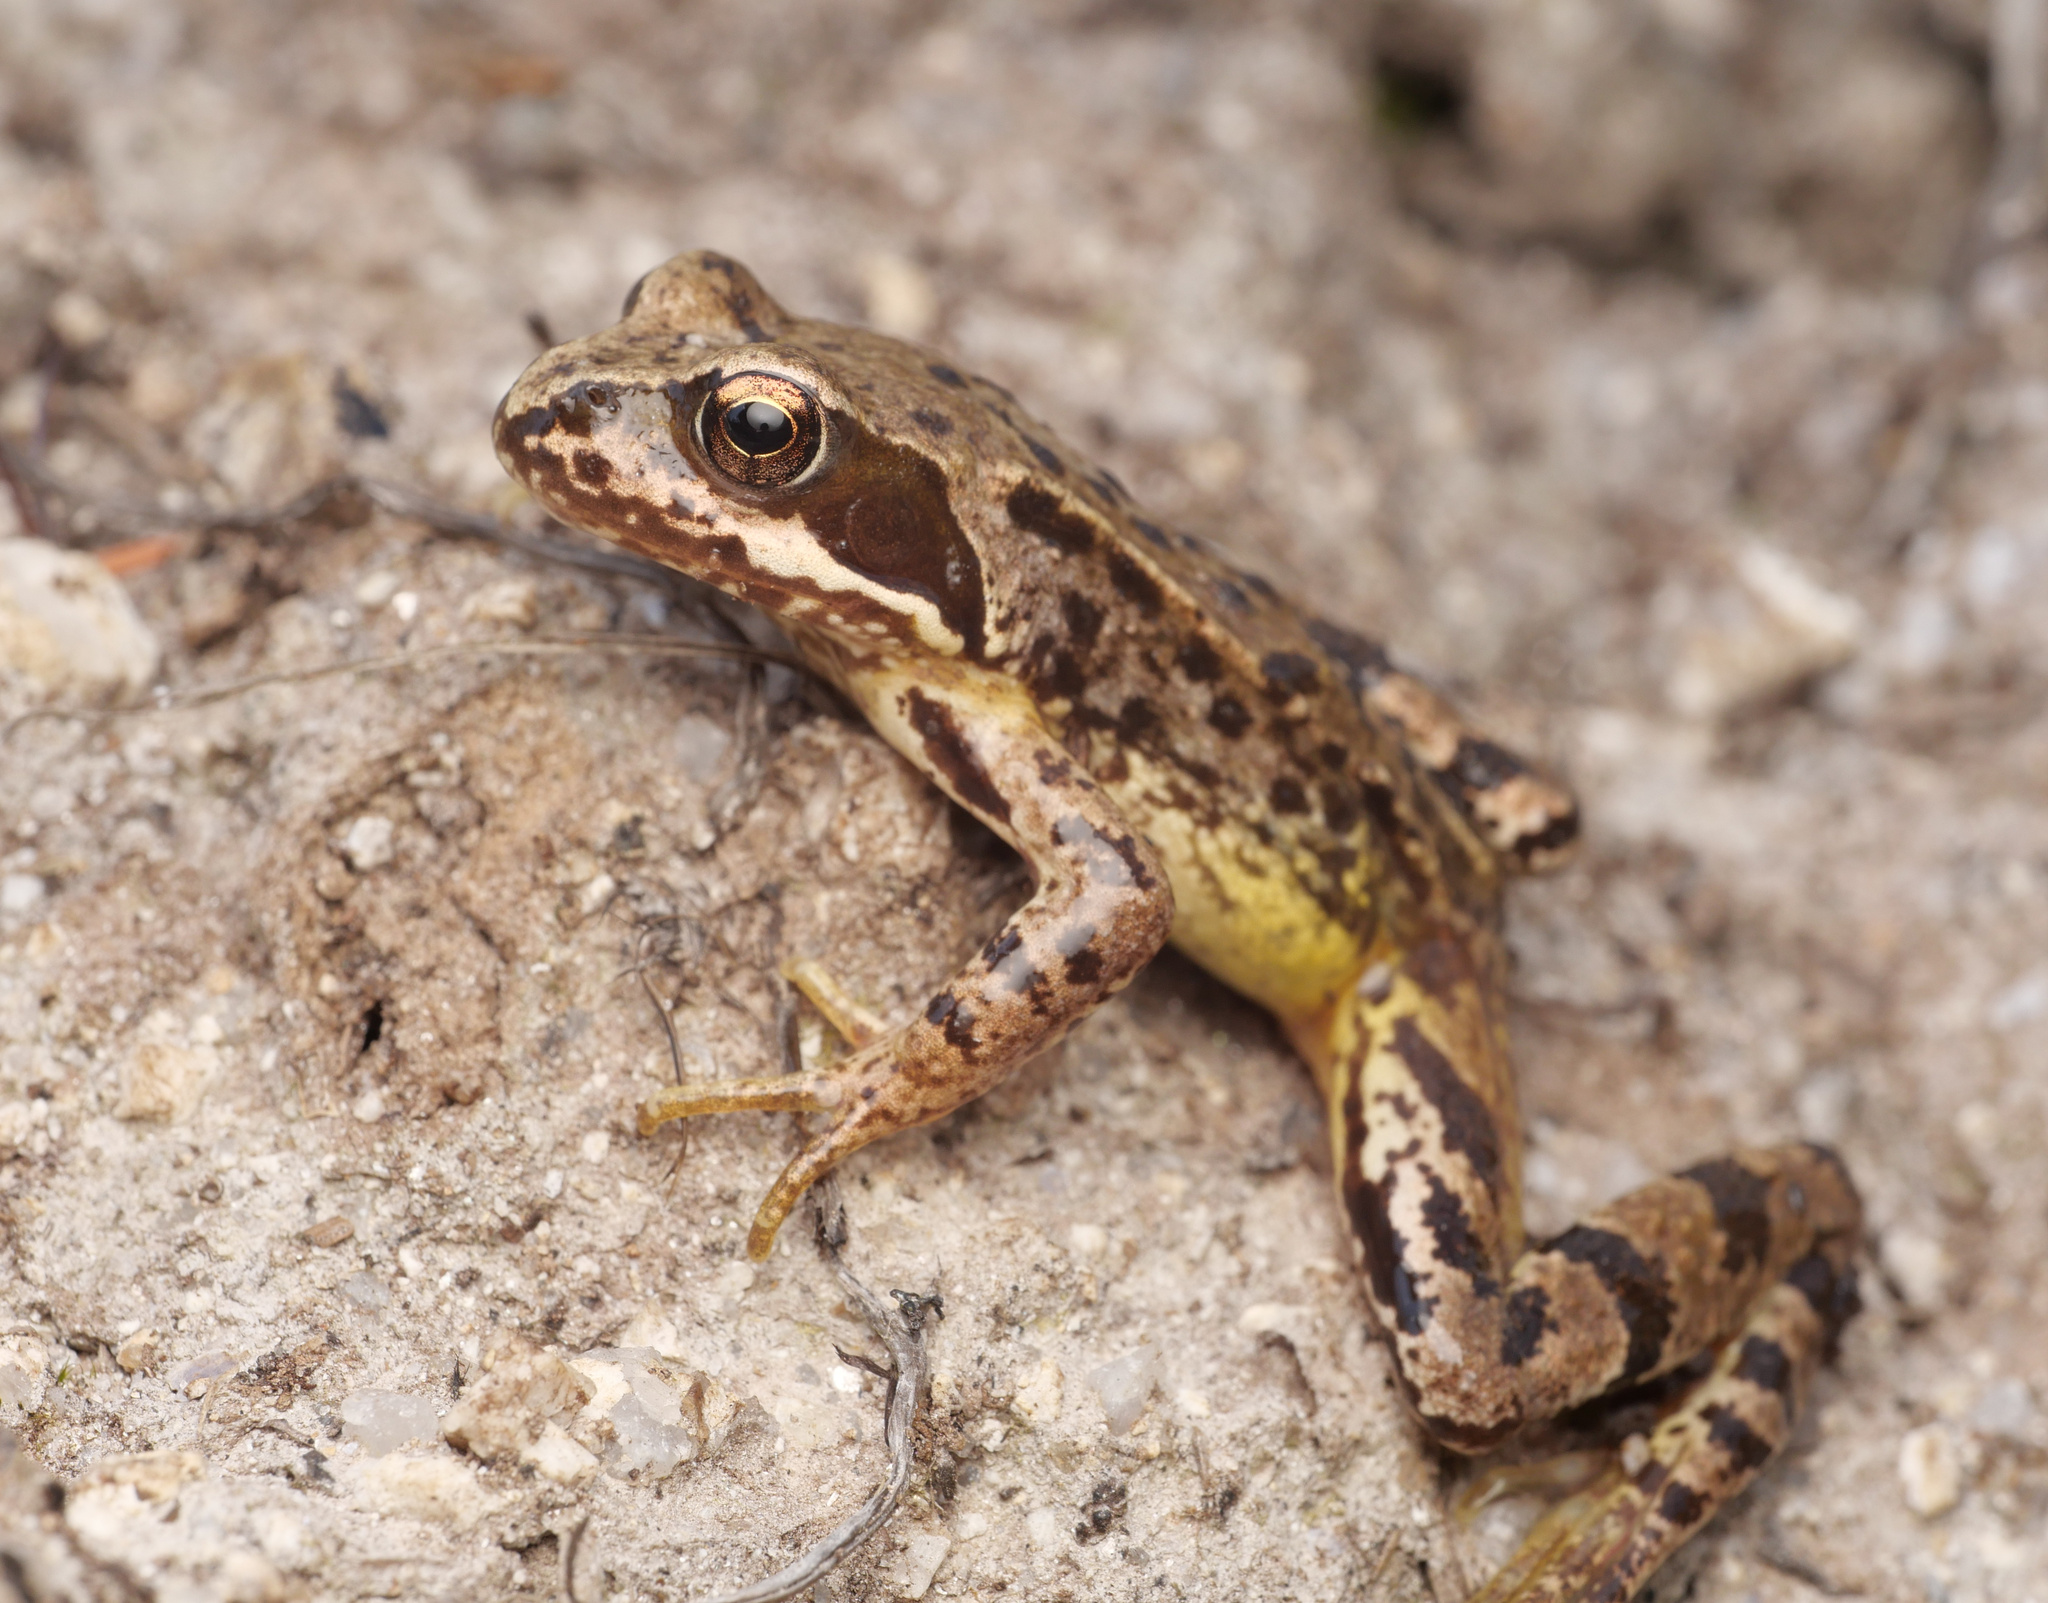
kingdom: Animalia
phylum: Chordata
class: Amphibia
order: Anura
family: Ranidae
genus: Rana
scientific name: Rana temporaria
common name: Common frog
